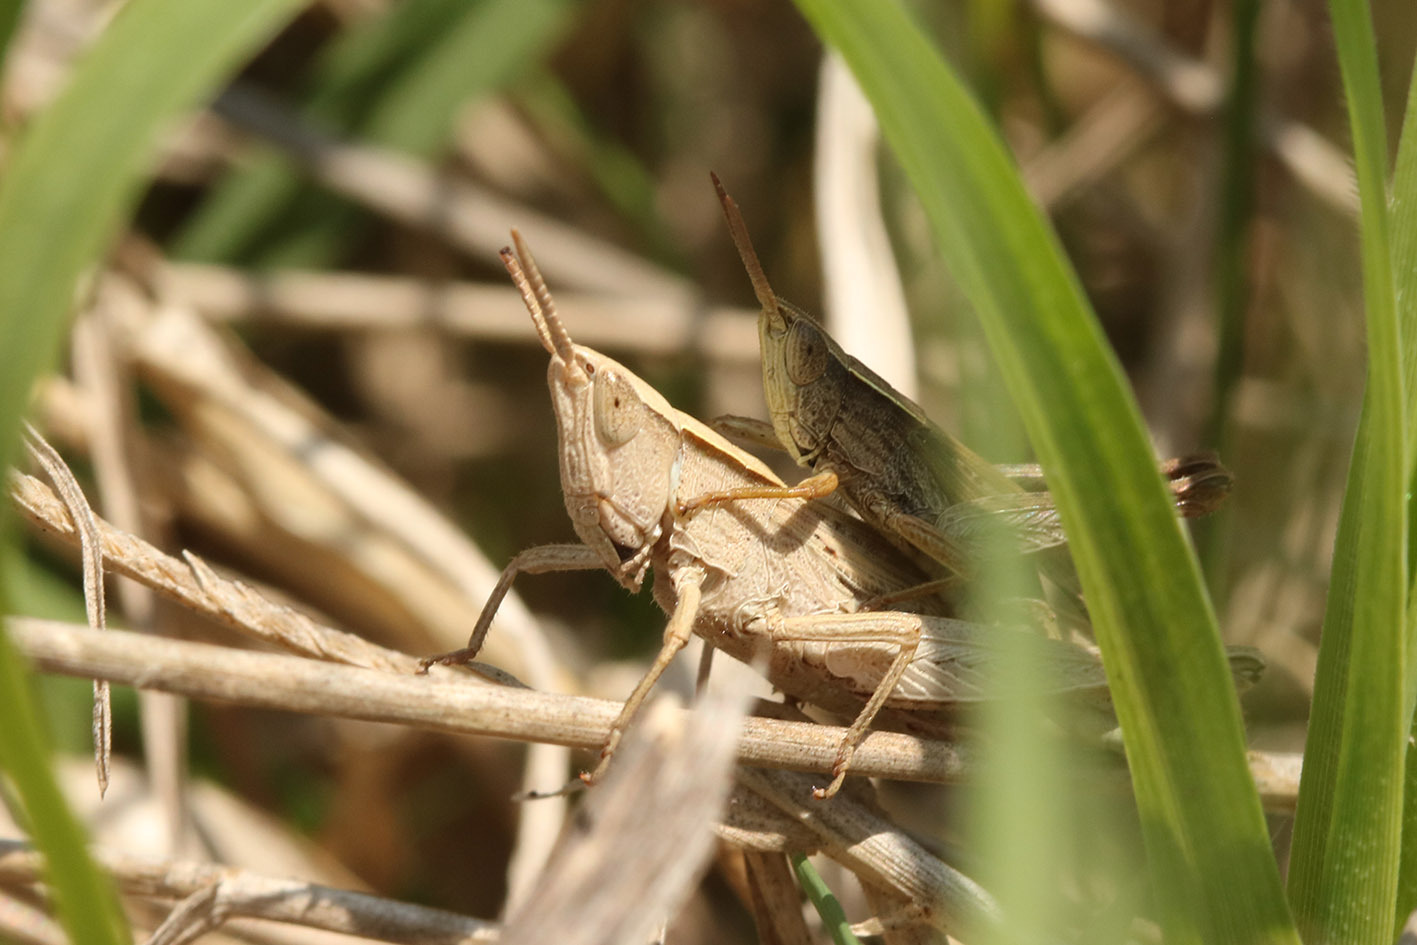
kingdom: Animalia
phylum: Arthropoda
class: Insecta
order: Orthoptera
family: Acrididae
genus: Laplatacris
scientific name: Laplatacris dispar
